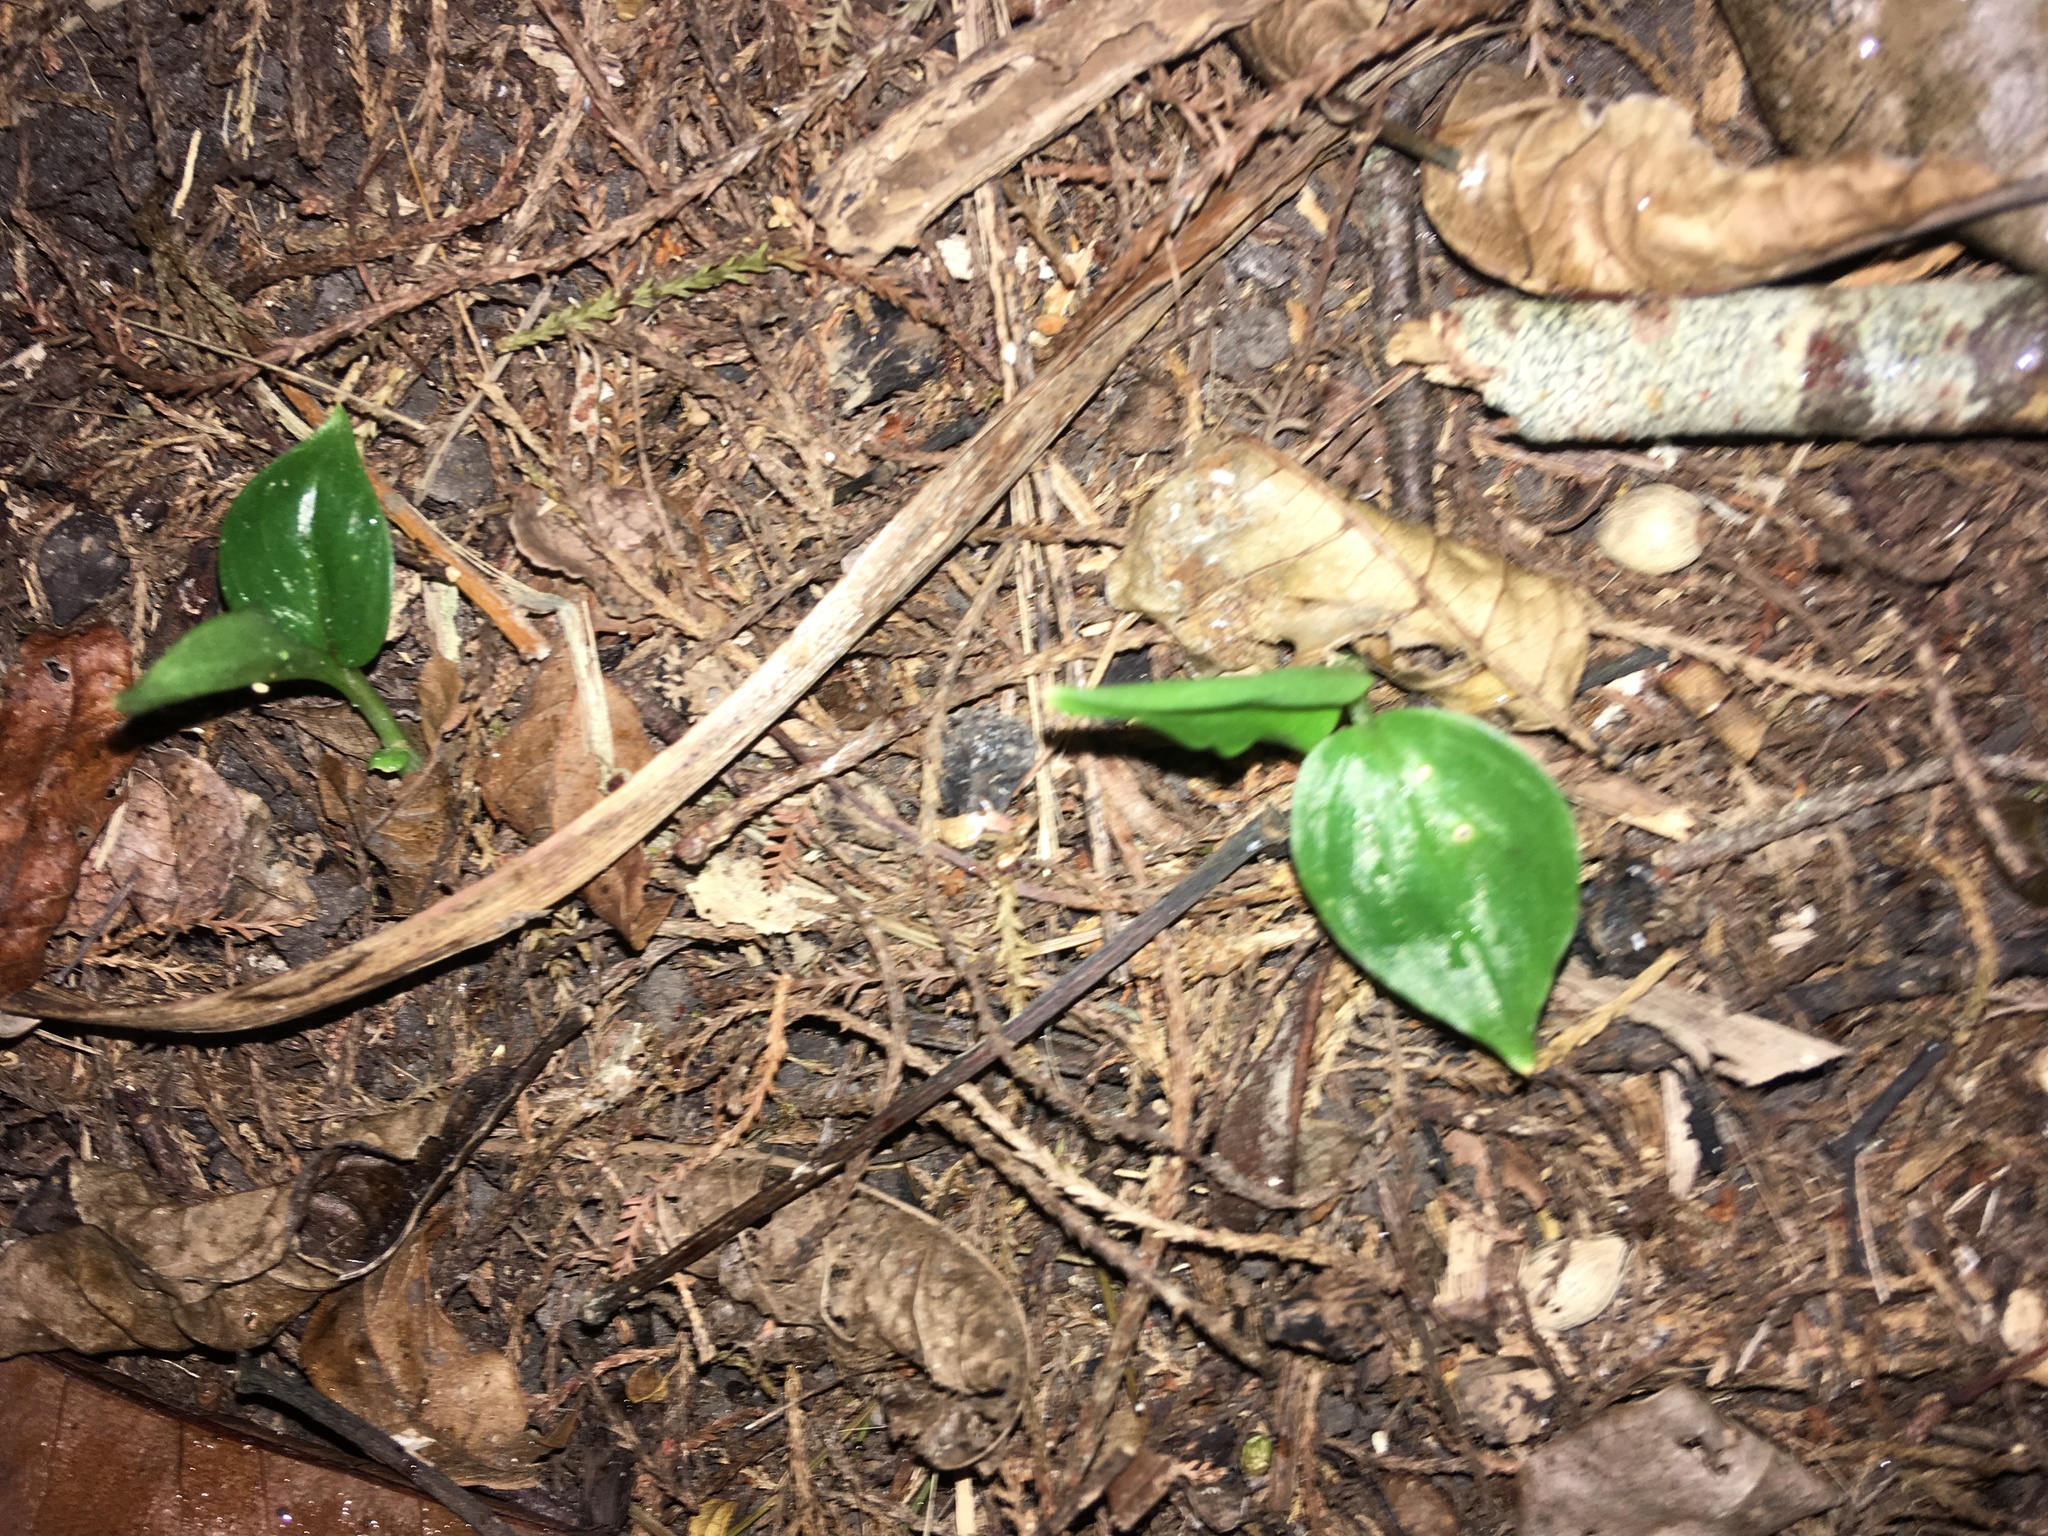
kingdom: Plantae
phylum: Tracheophyta
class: Liliopsida
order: Zingiberales
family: Zingiberaceae
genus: Hedychium
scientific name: Hedychium gardnerianum
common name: Himalayan ginger
